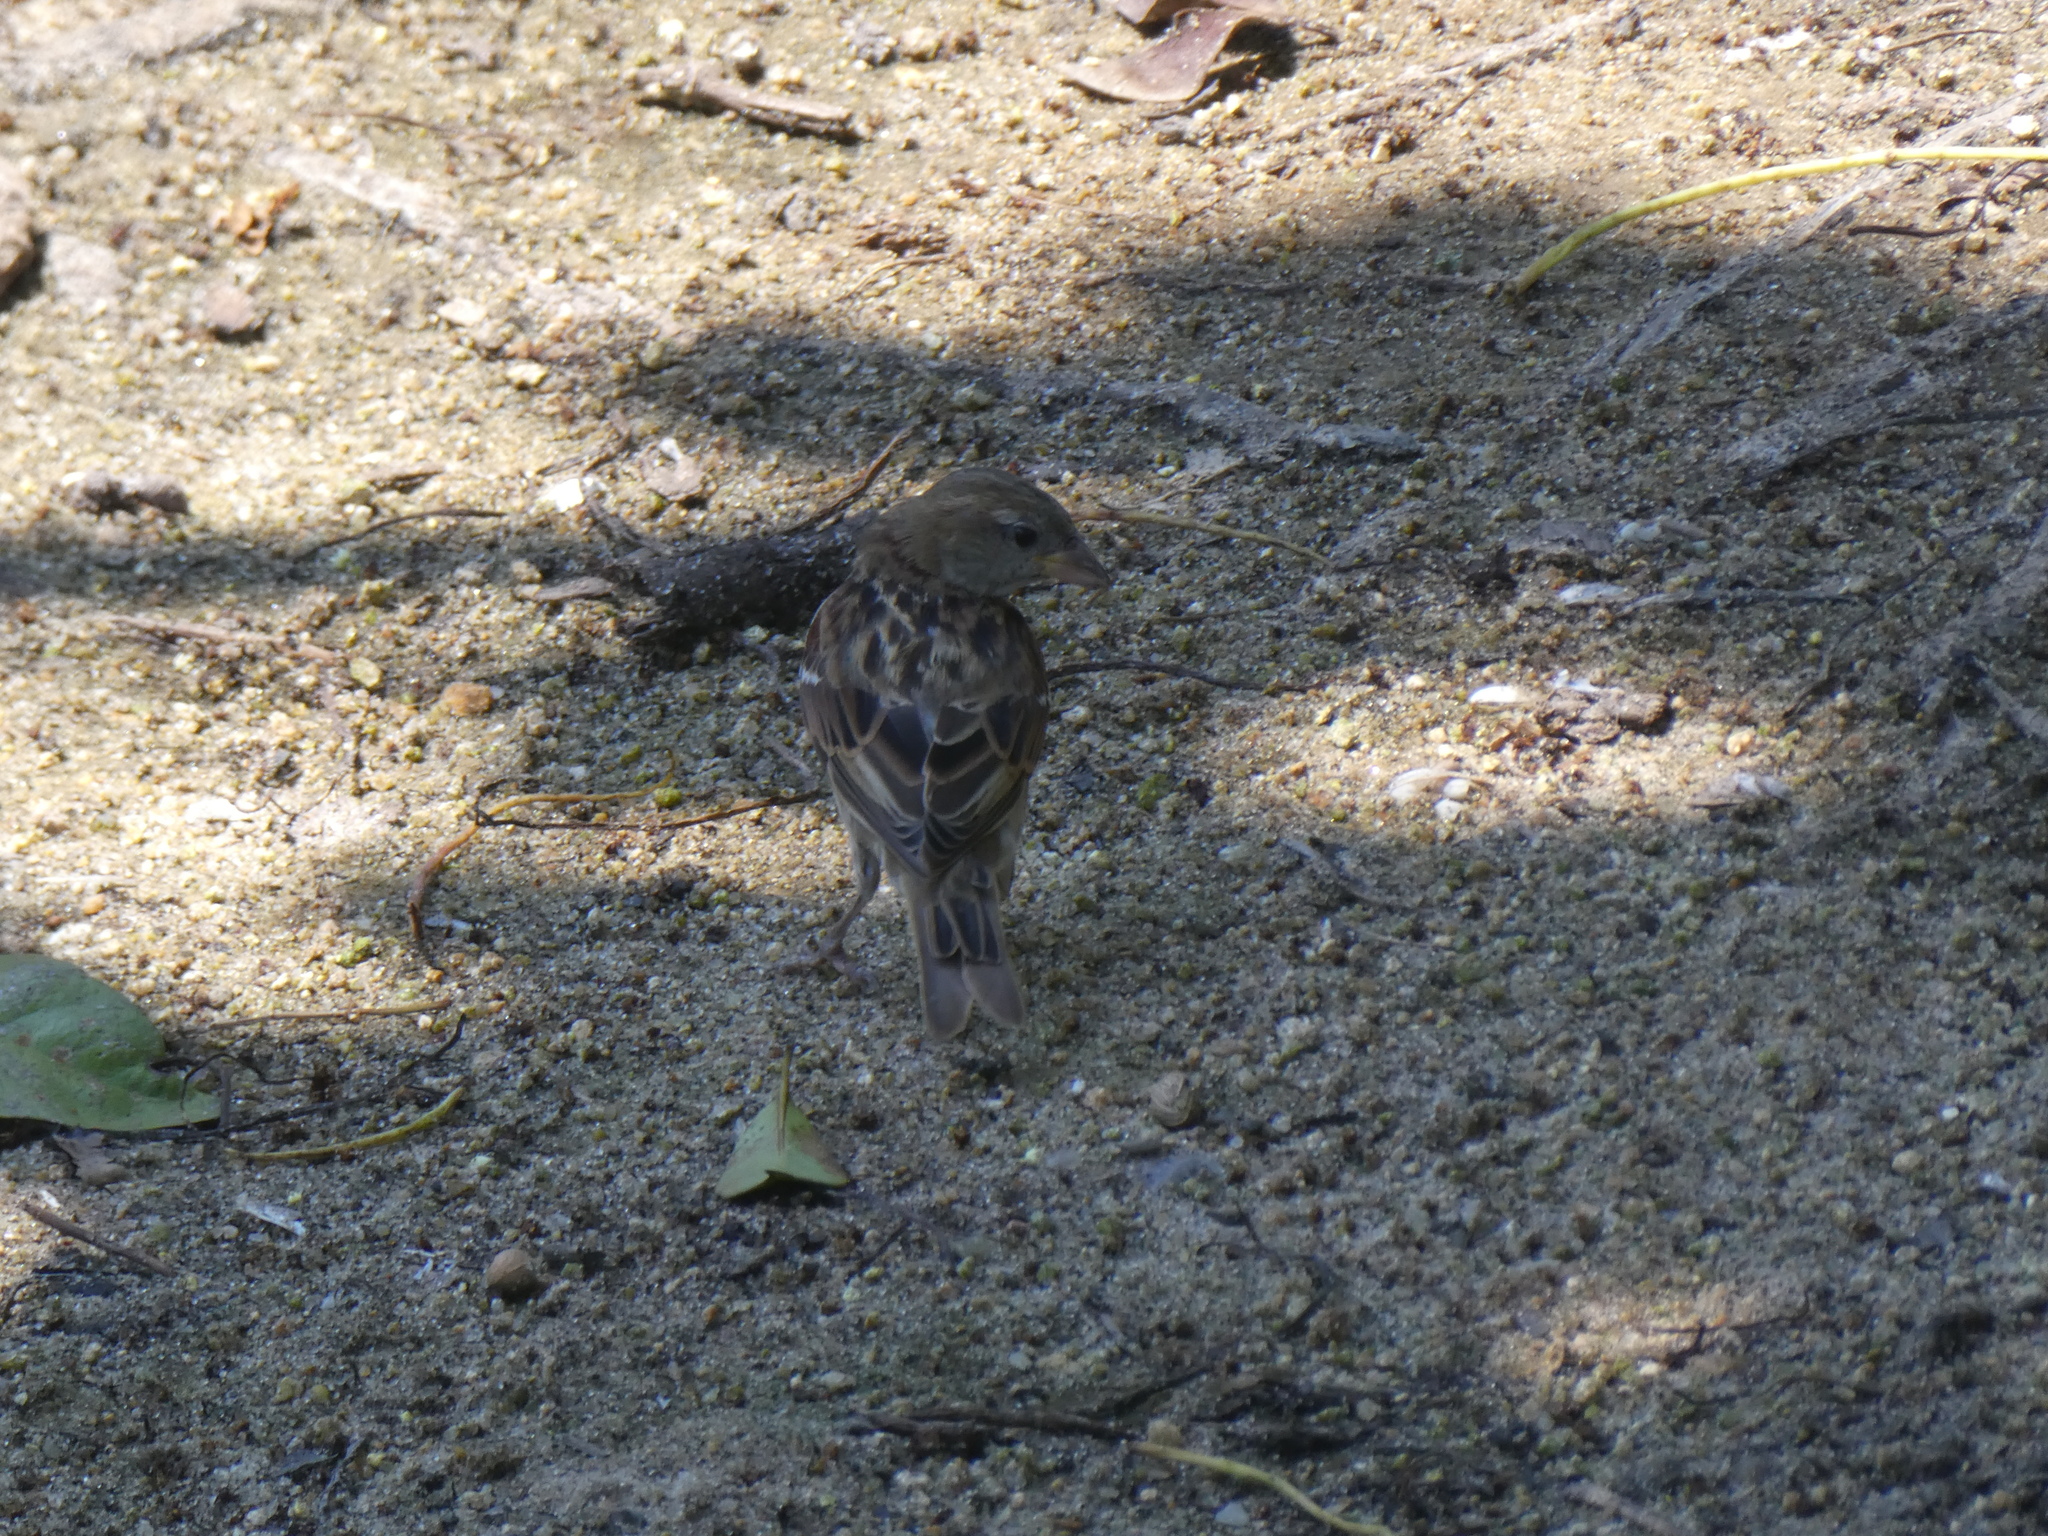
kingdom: Animalia
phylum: Chordata
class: Aves
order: Passeriformes
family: Passeridae
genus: Passer
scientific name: Passer domesticus
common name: House sparrow
